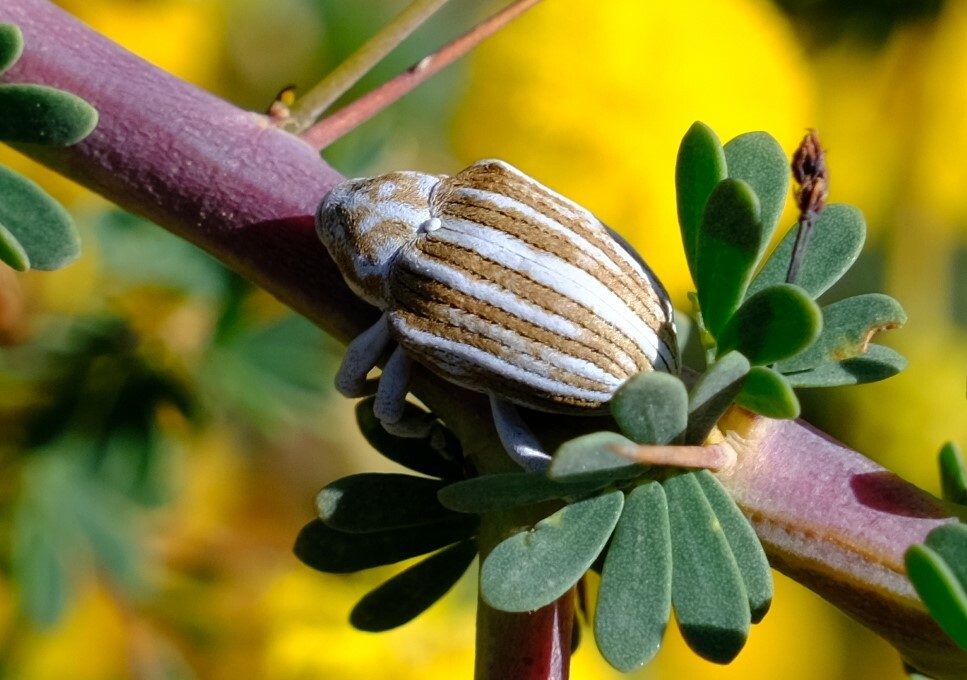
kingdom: Animalia
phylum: Arthropoda
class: Insecta
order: Coleoptera
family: Brachyceridae
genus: Aonychus
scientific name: Aonychus lineatus
